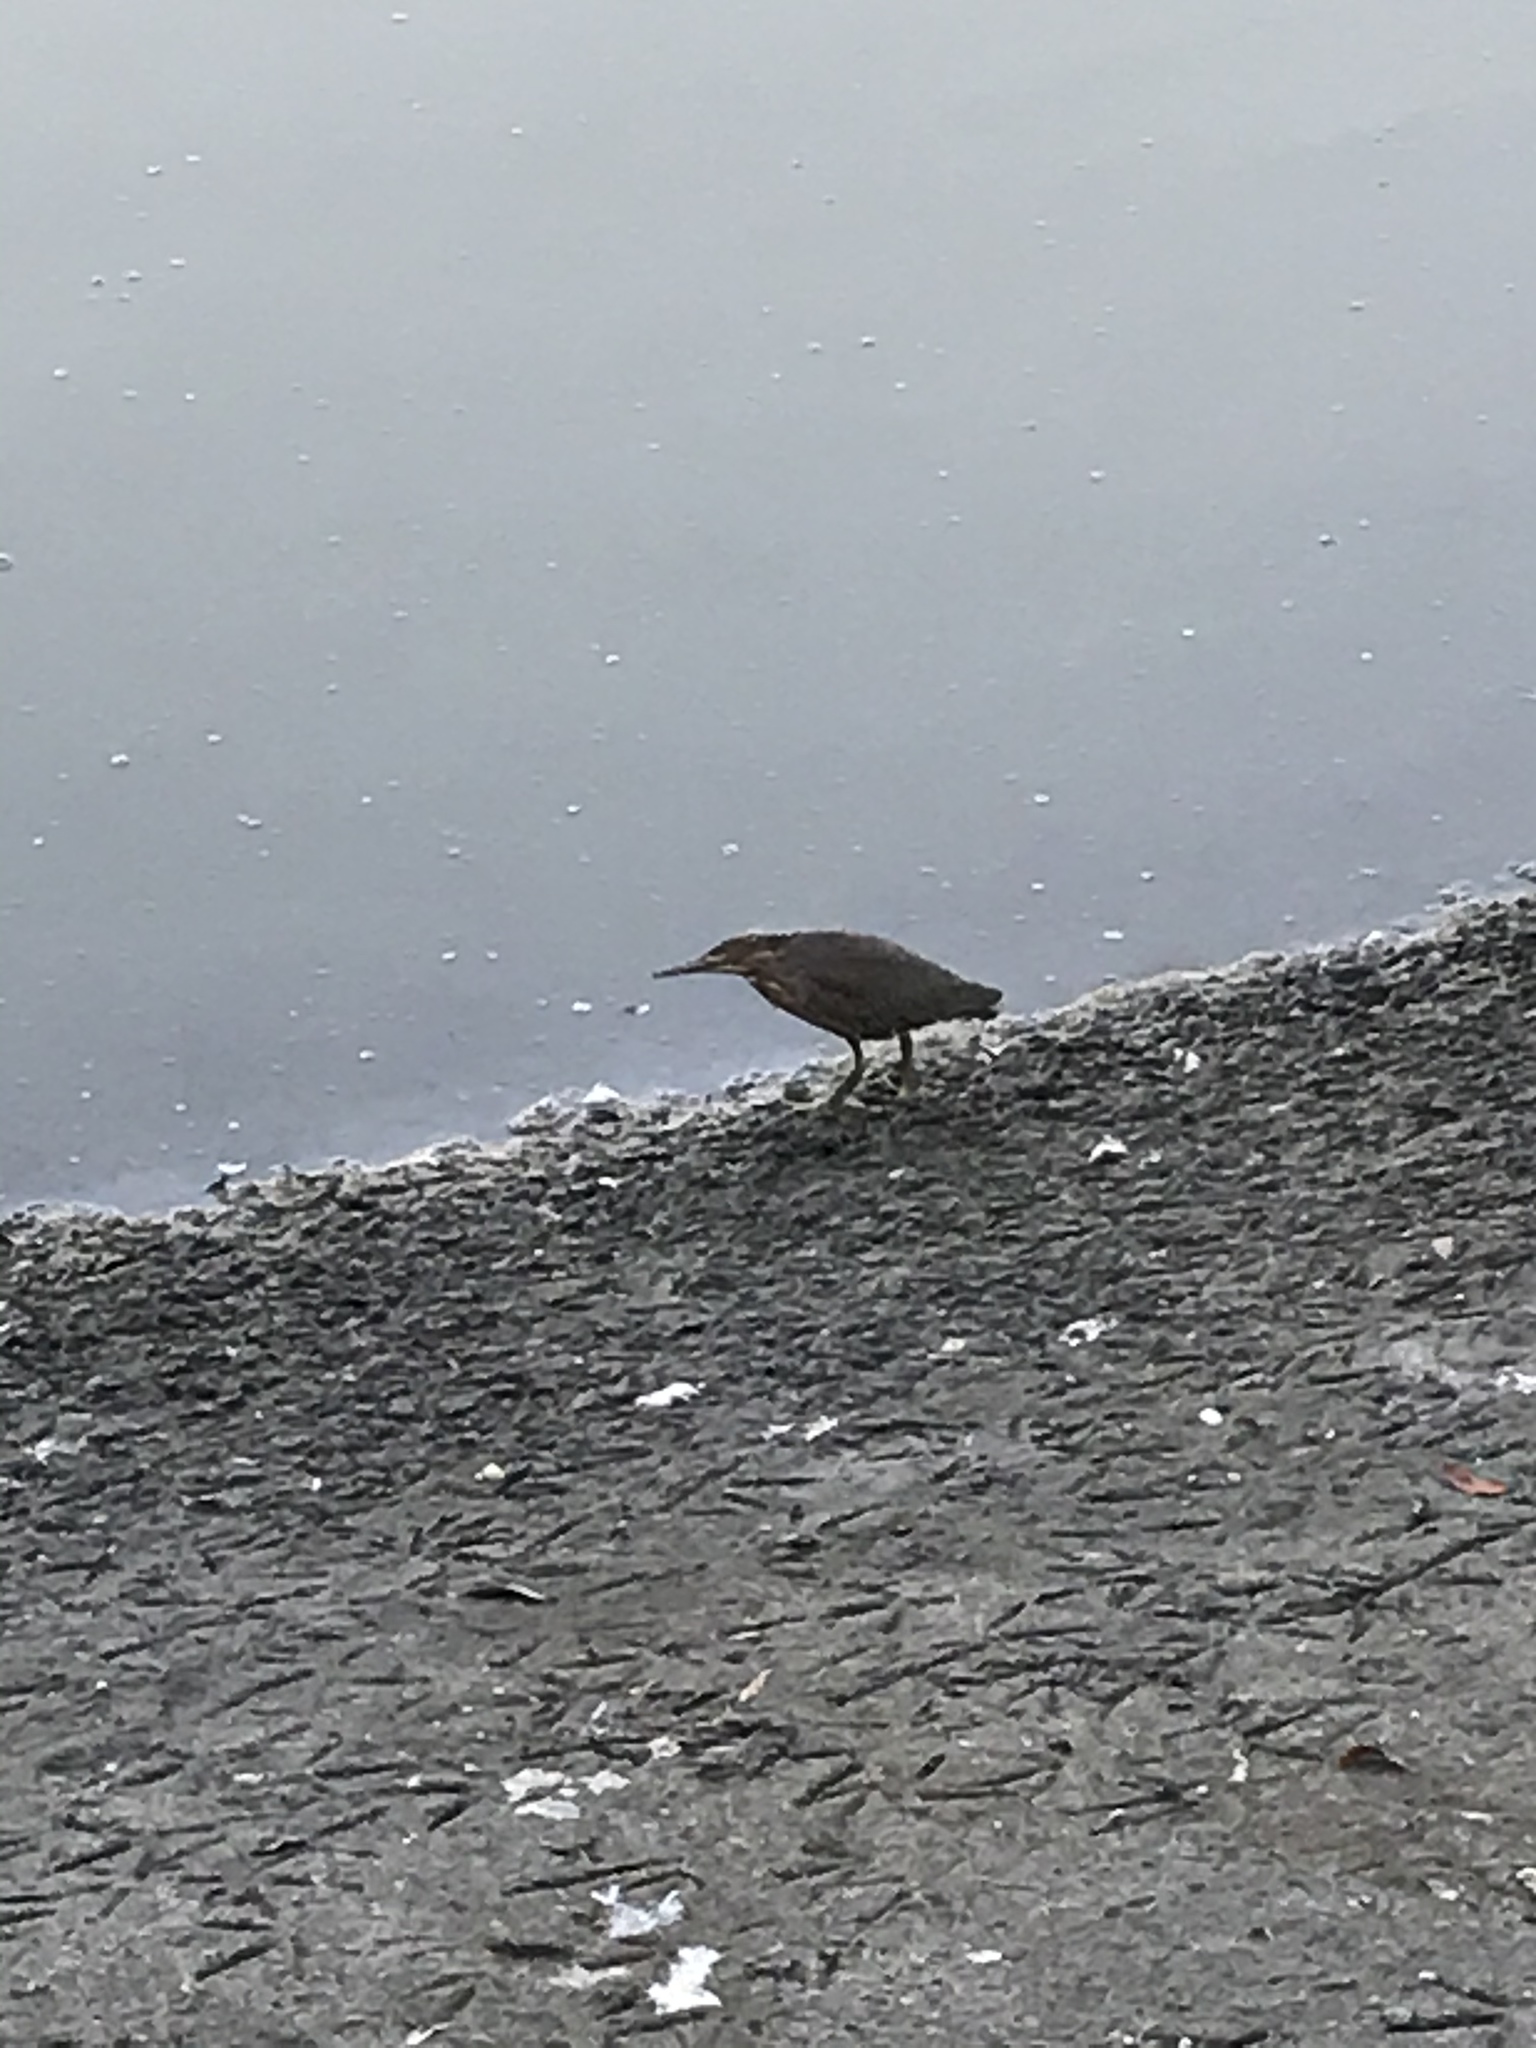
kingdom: Animalia
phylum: Chordata
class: Aves
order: Pelecaniformes
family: Ardeidae
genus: Butorides
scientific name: Butorides virescens
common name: Green heron
